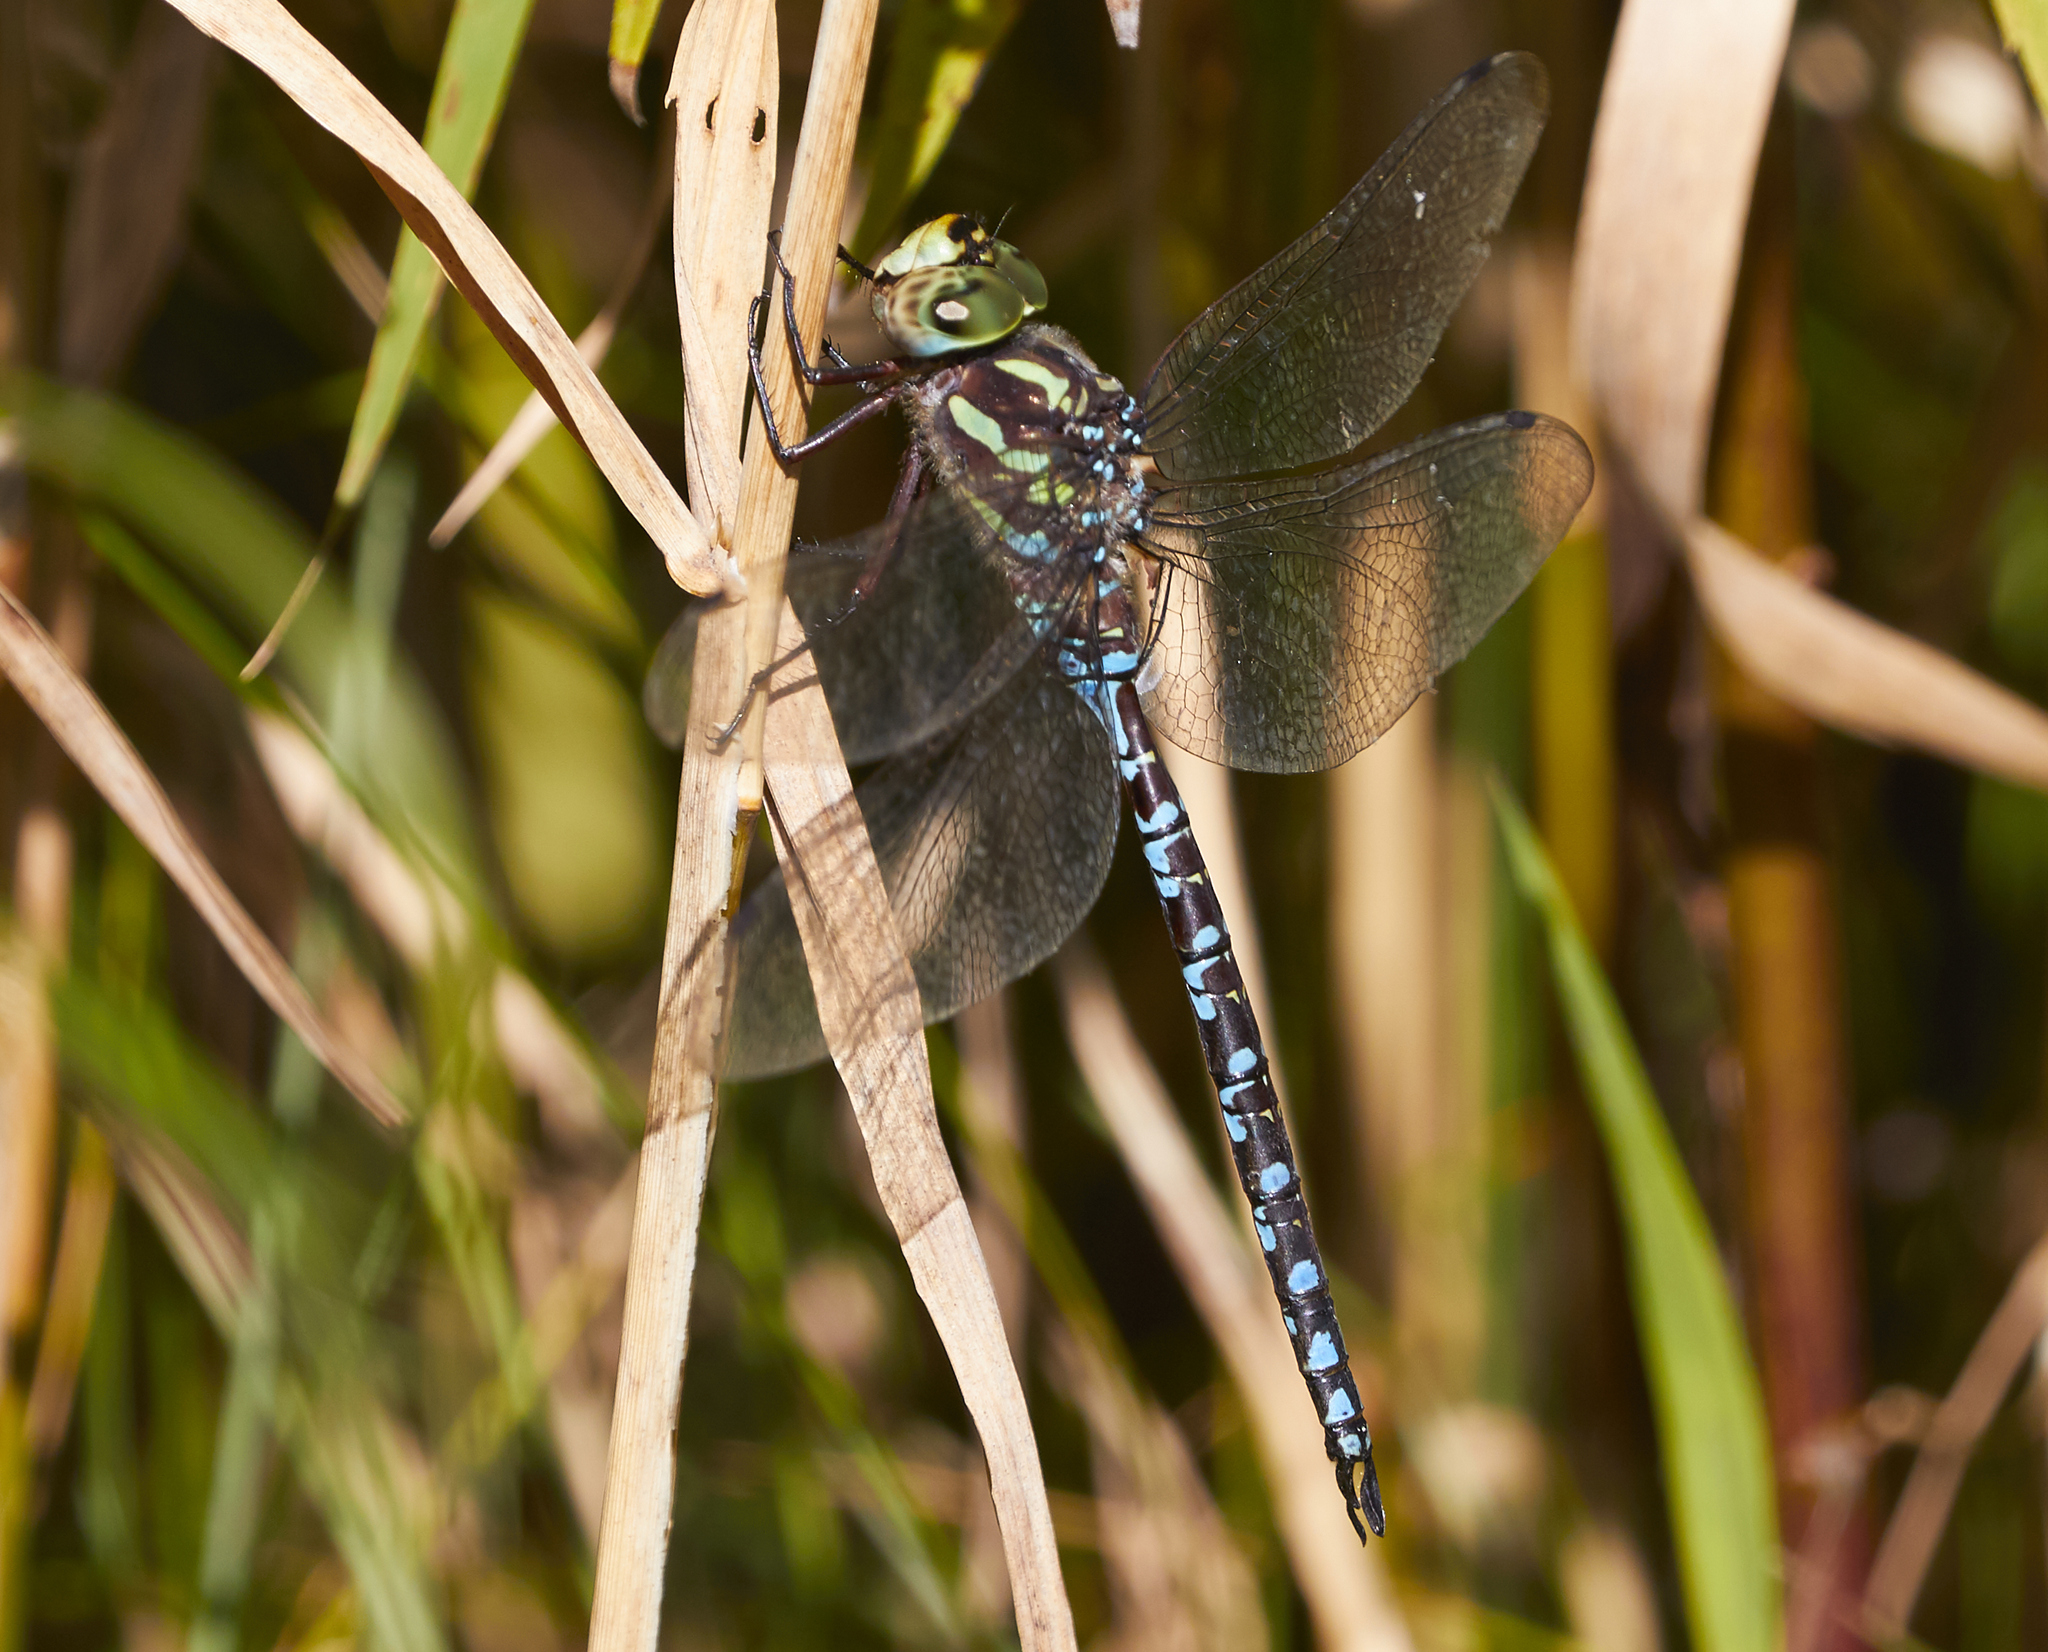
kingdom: Animalia
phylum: Arthropoda
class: Insecta
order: Odonata
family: Aeshnidae
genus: Aeshna
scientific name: Aeshna verticalis
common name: Green-striped darner
